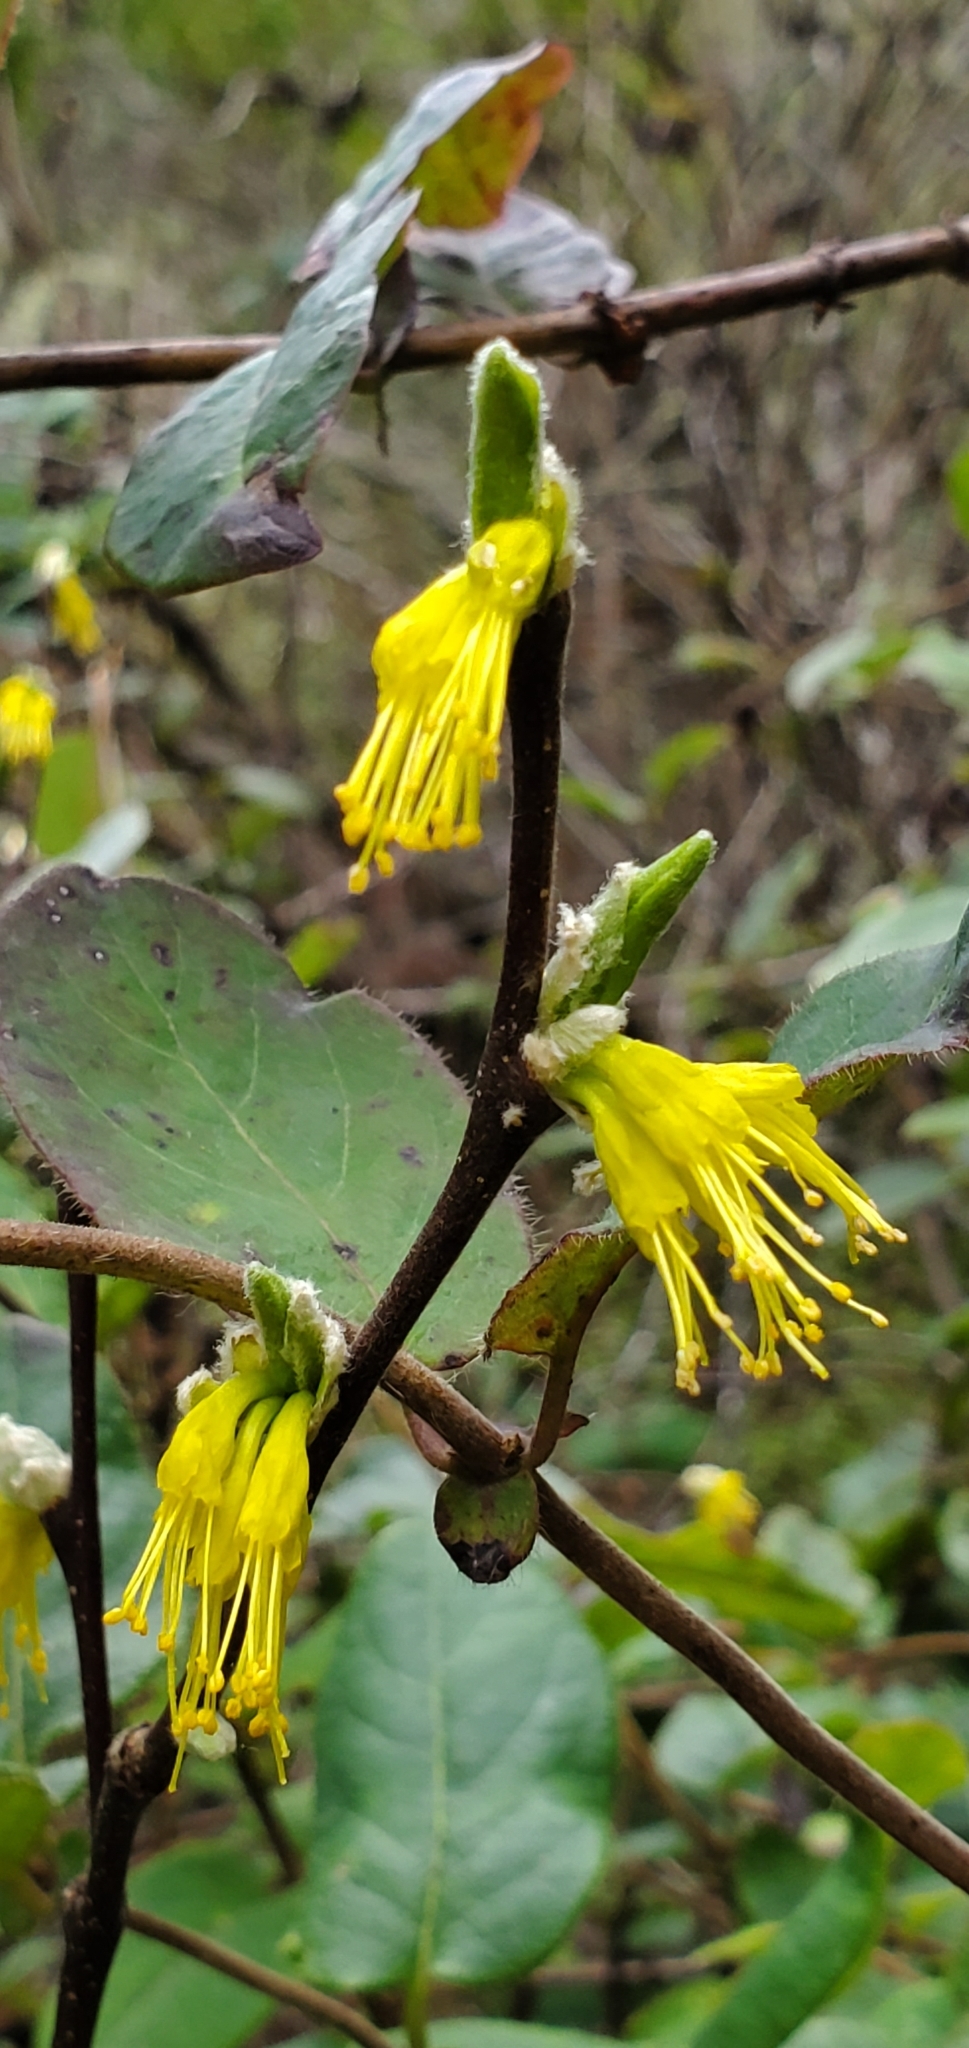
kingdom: Plantae
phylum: Tracheophyta
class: Magnoliopsida
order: Malvales
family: Thymelaeaceae
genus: Dirca
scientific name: Dirca occidentalis
